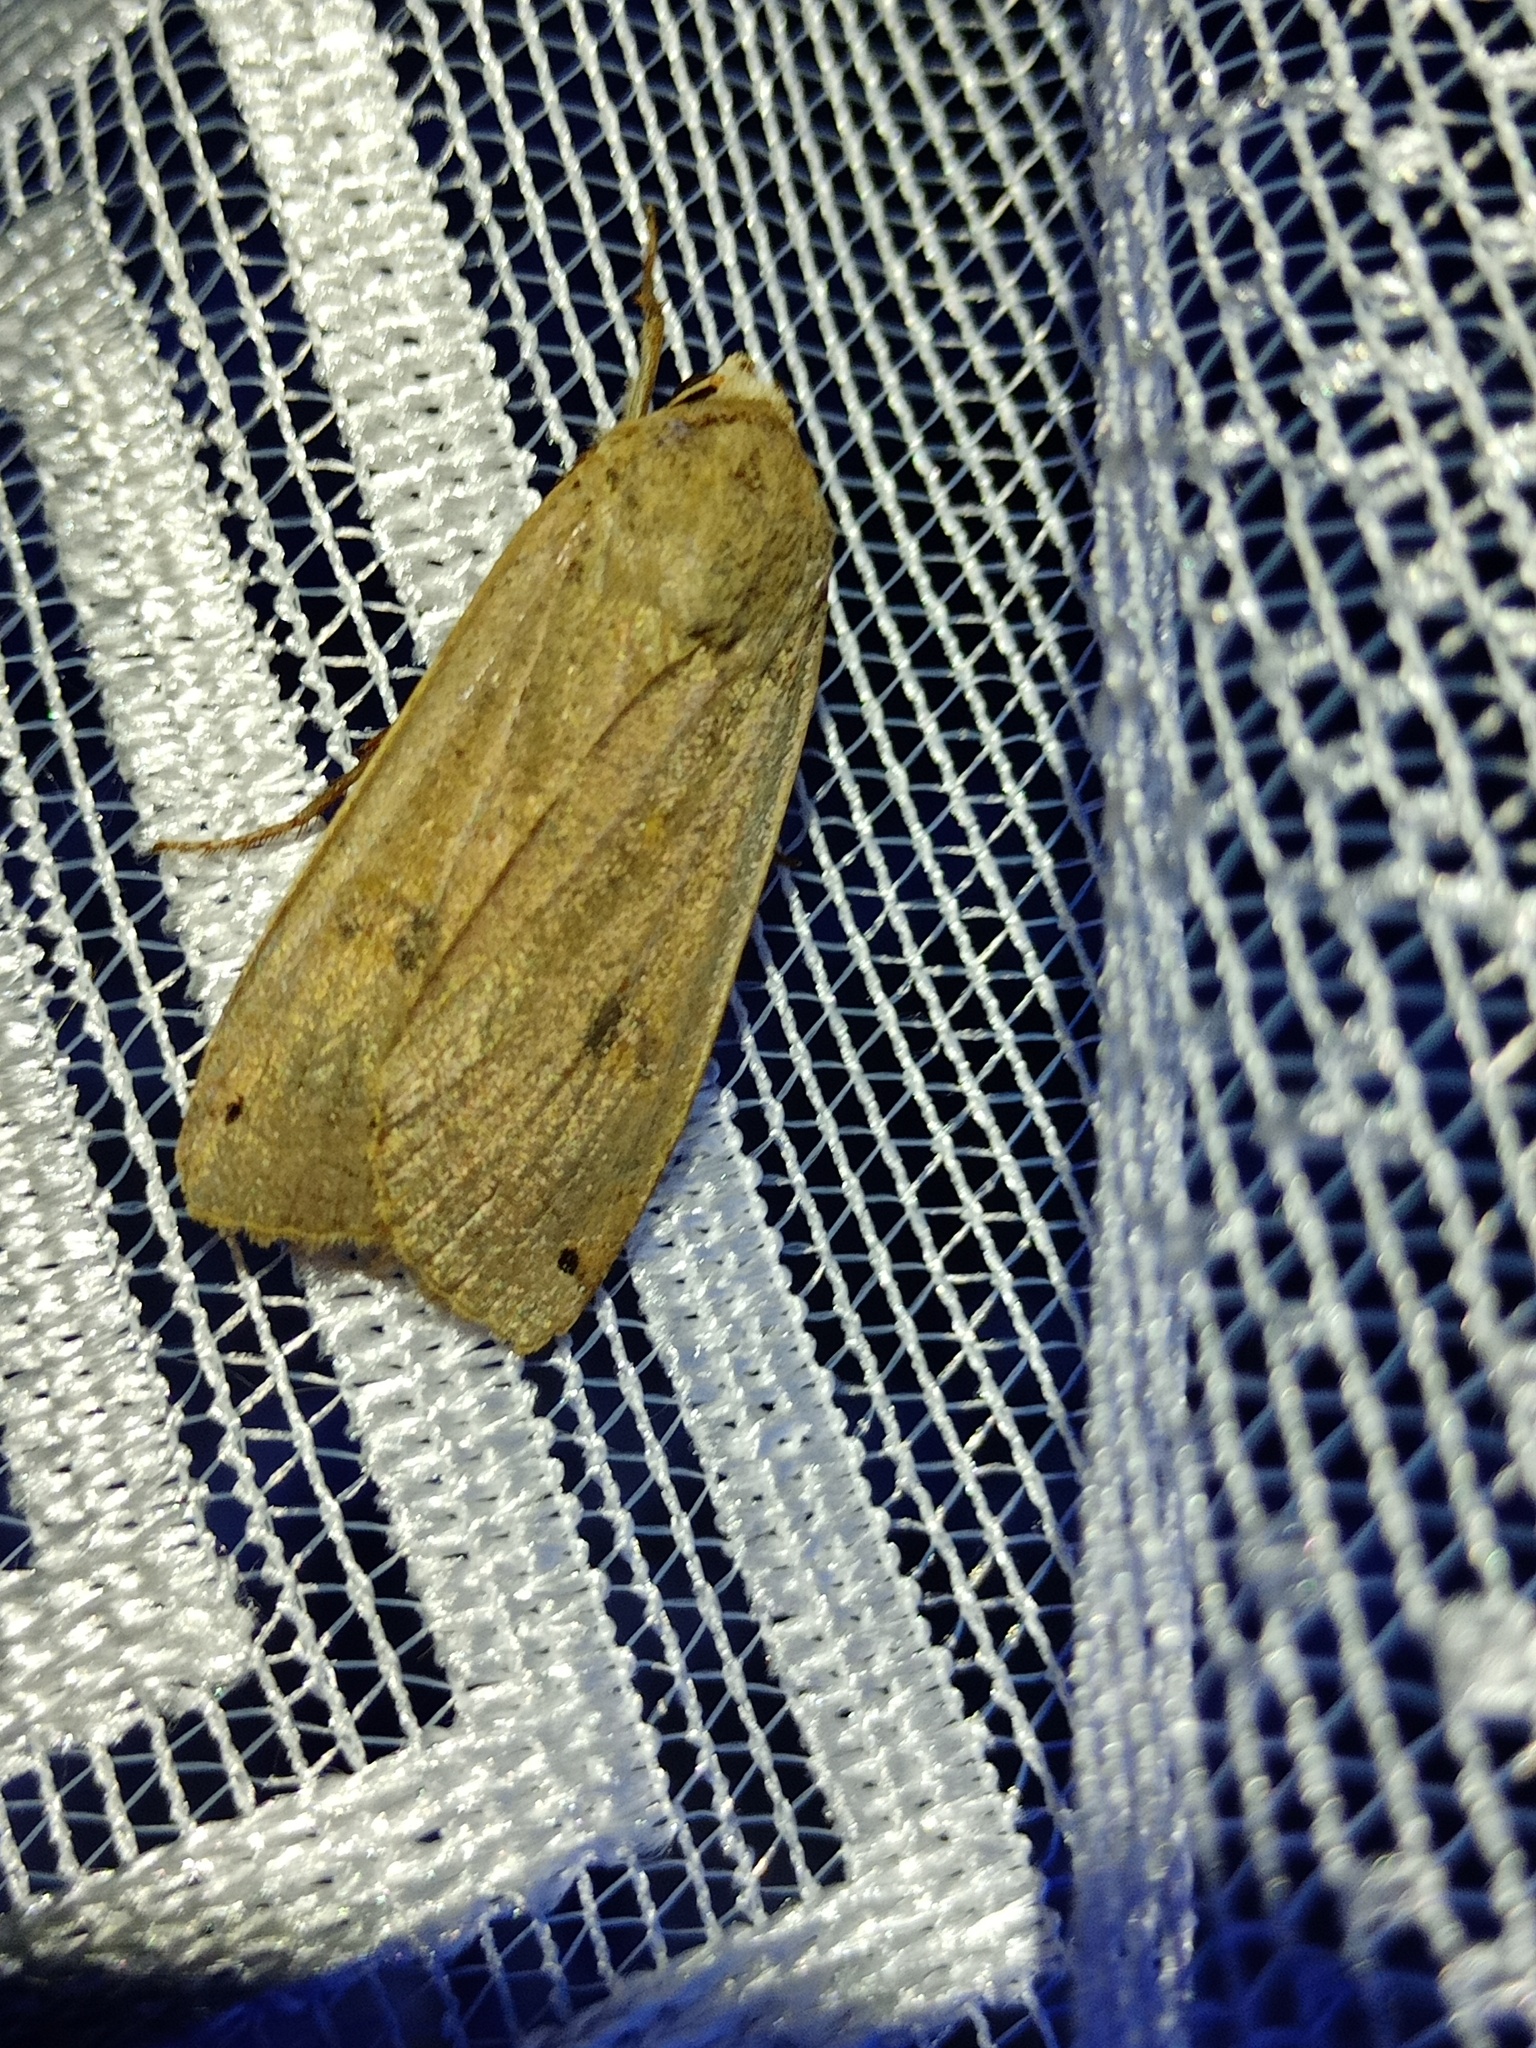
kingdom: Animalia
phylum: Arthropoda
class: Insecta
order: Lepidoptera
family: Noctuidae
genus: Noctua
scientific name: Noctua pronuba
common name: Large yellow underwing
